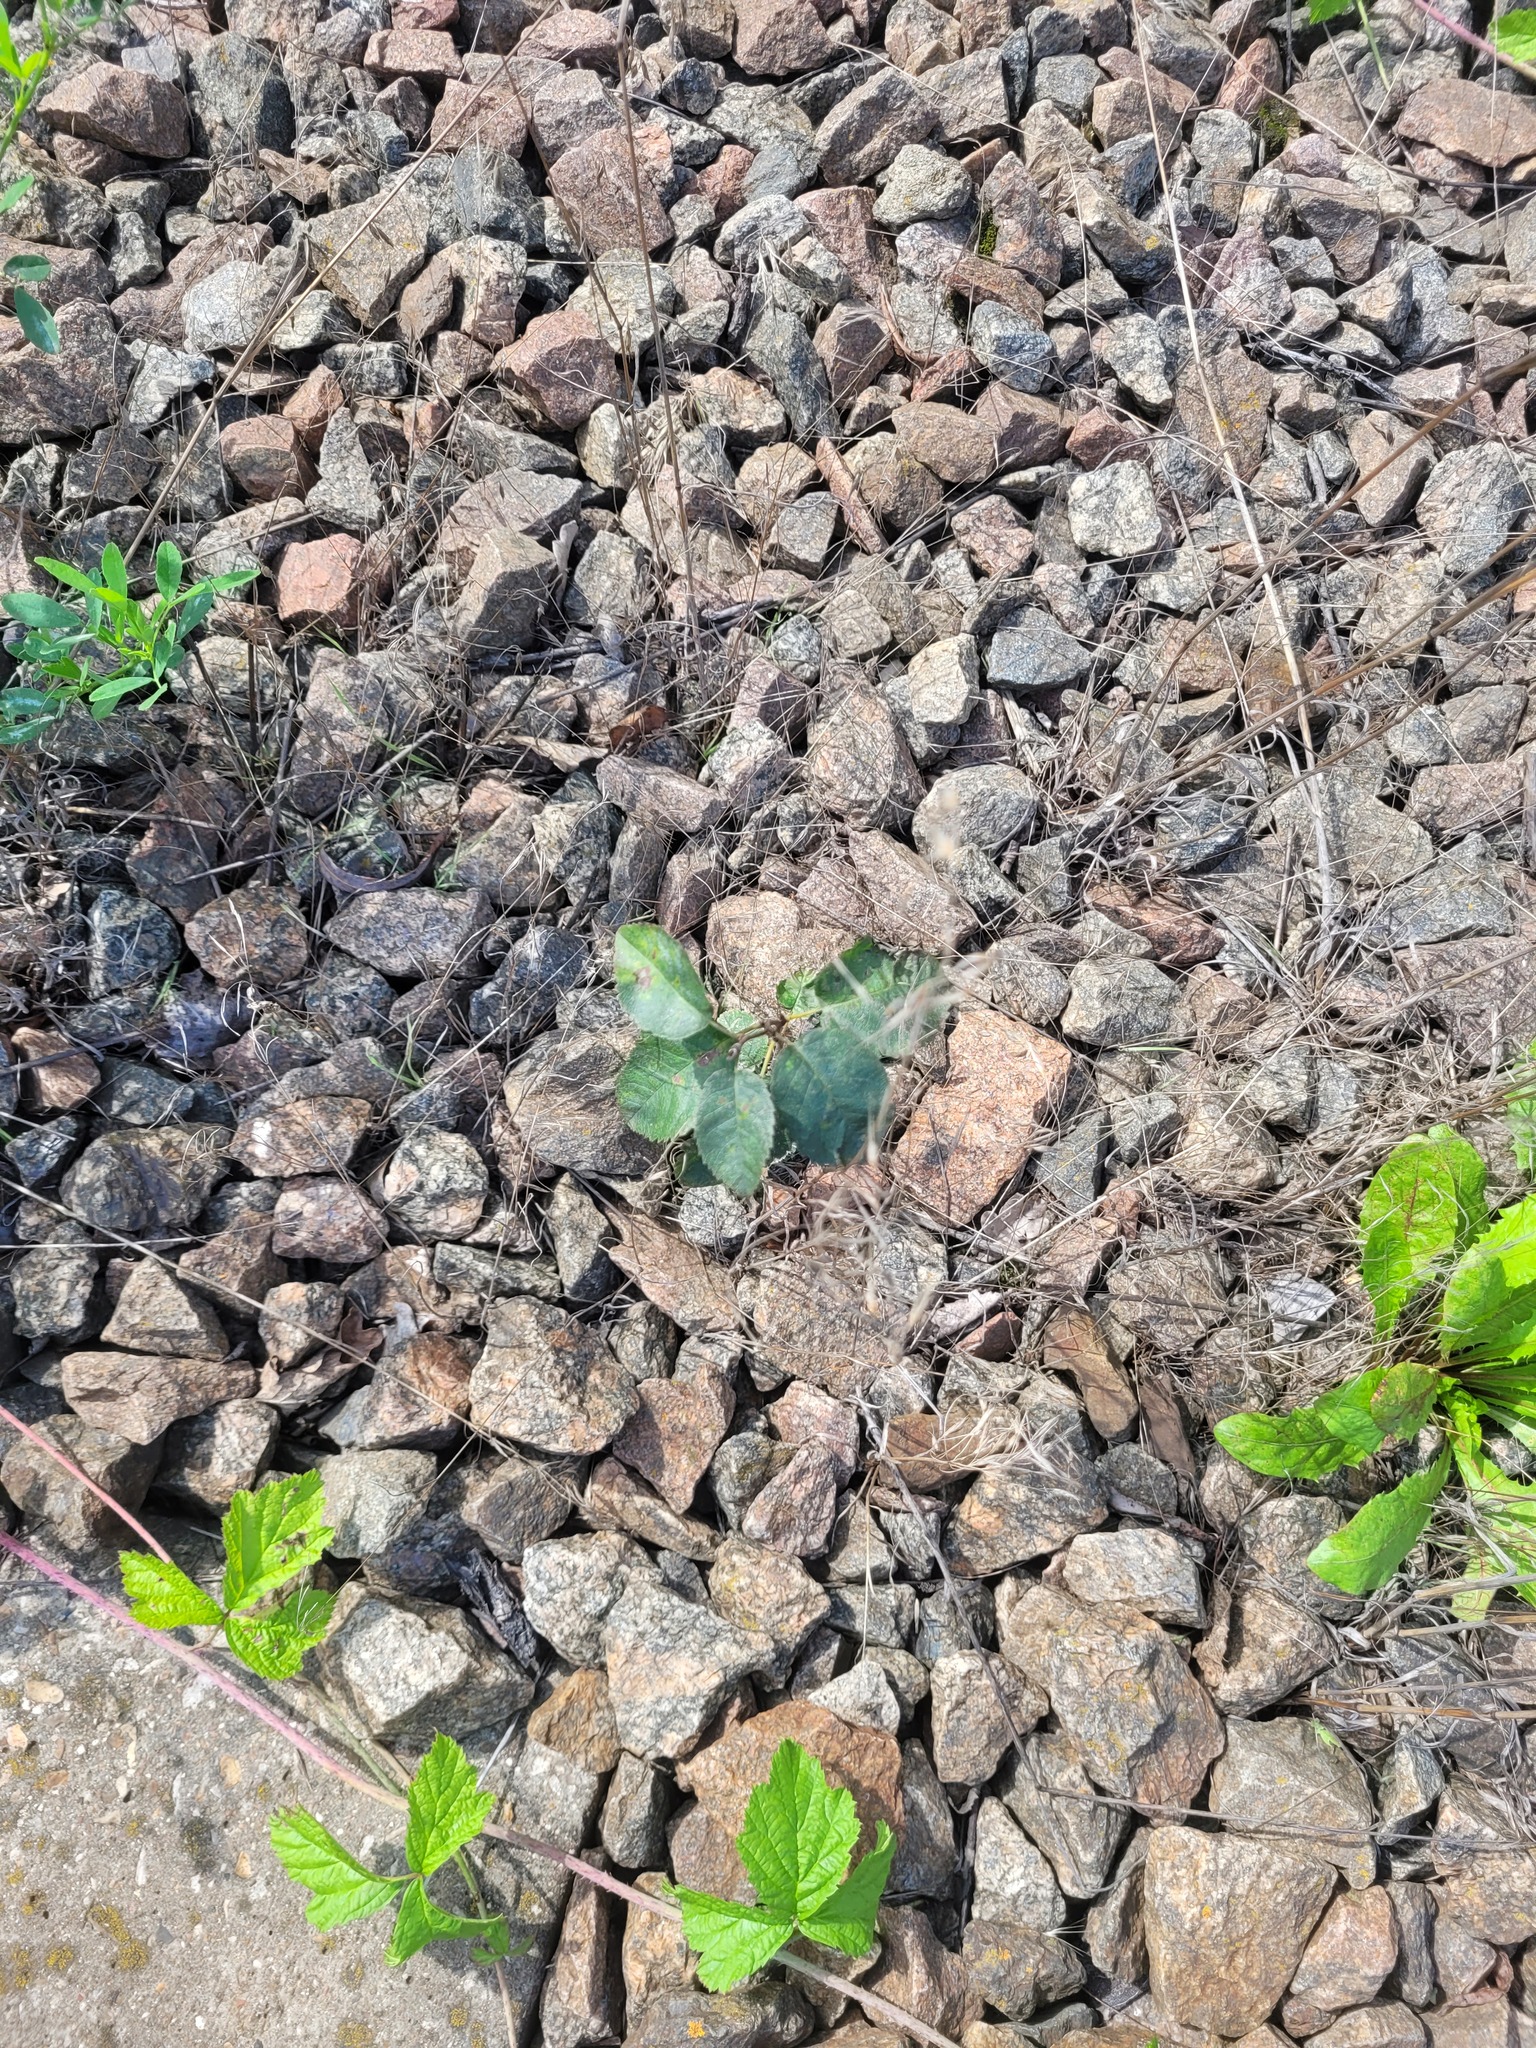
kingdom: Plantae
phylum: Tracheophyta
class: Magnoliopsida
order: Rosales
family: Rosaceae
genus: Amelanchier
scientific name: Amelanchier
